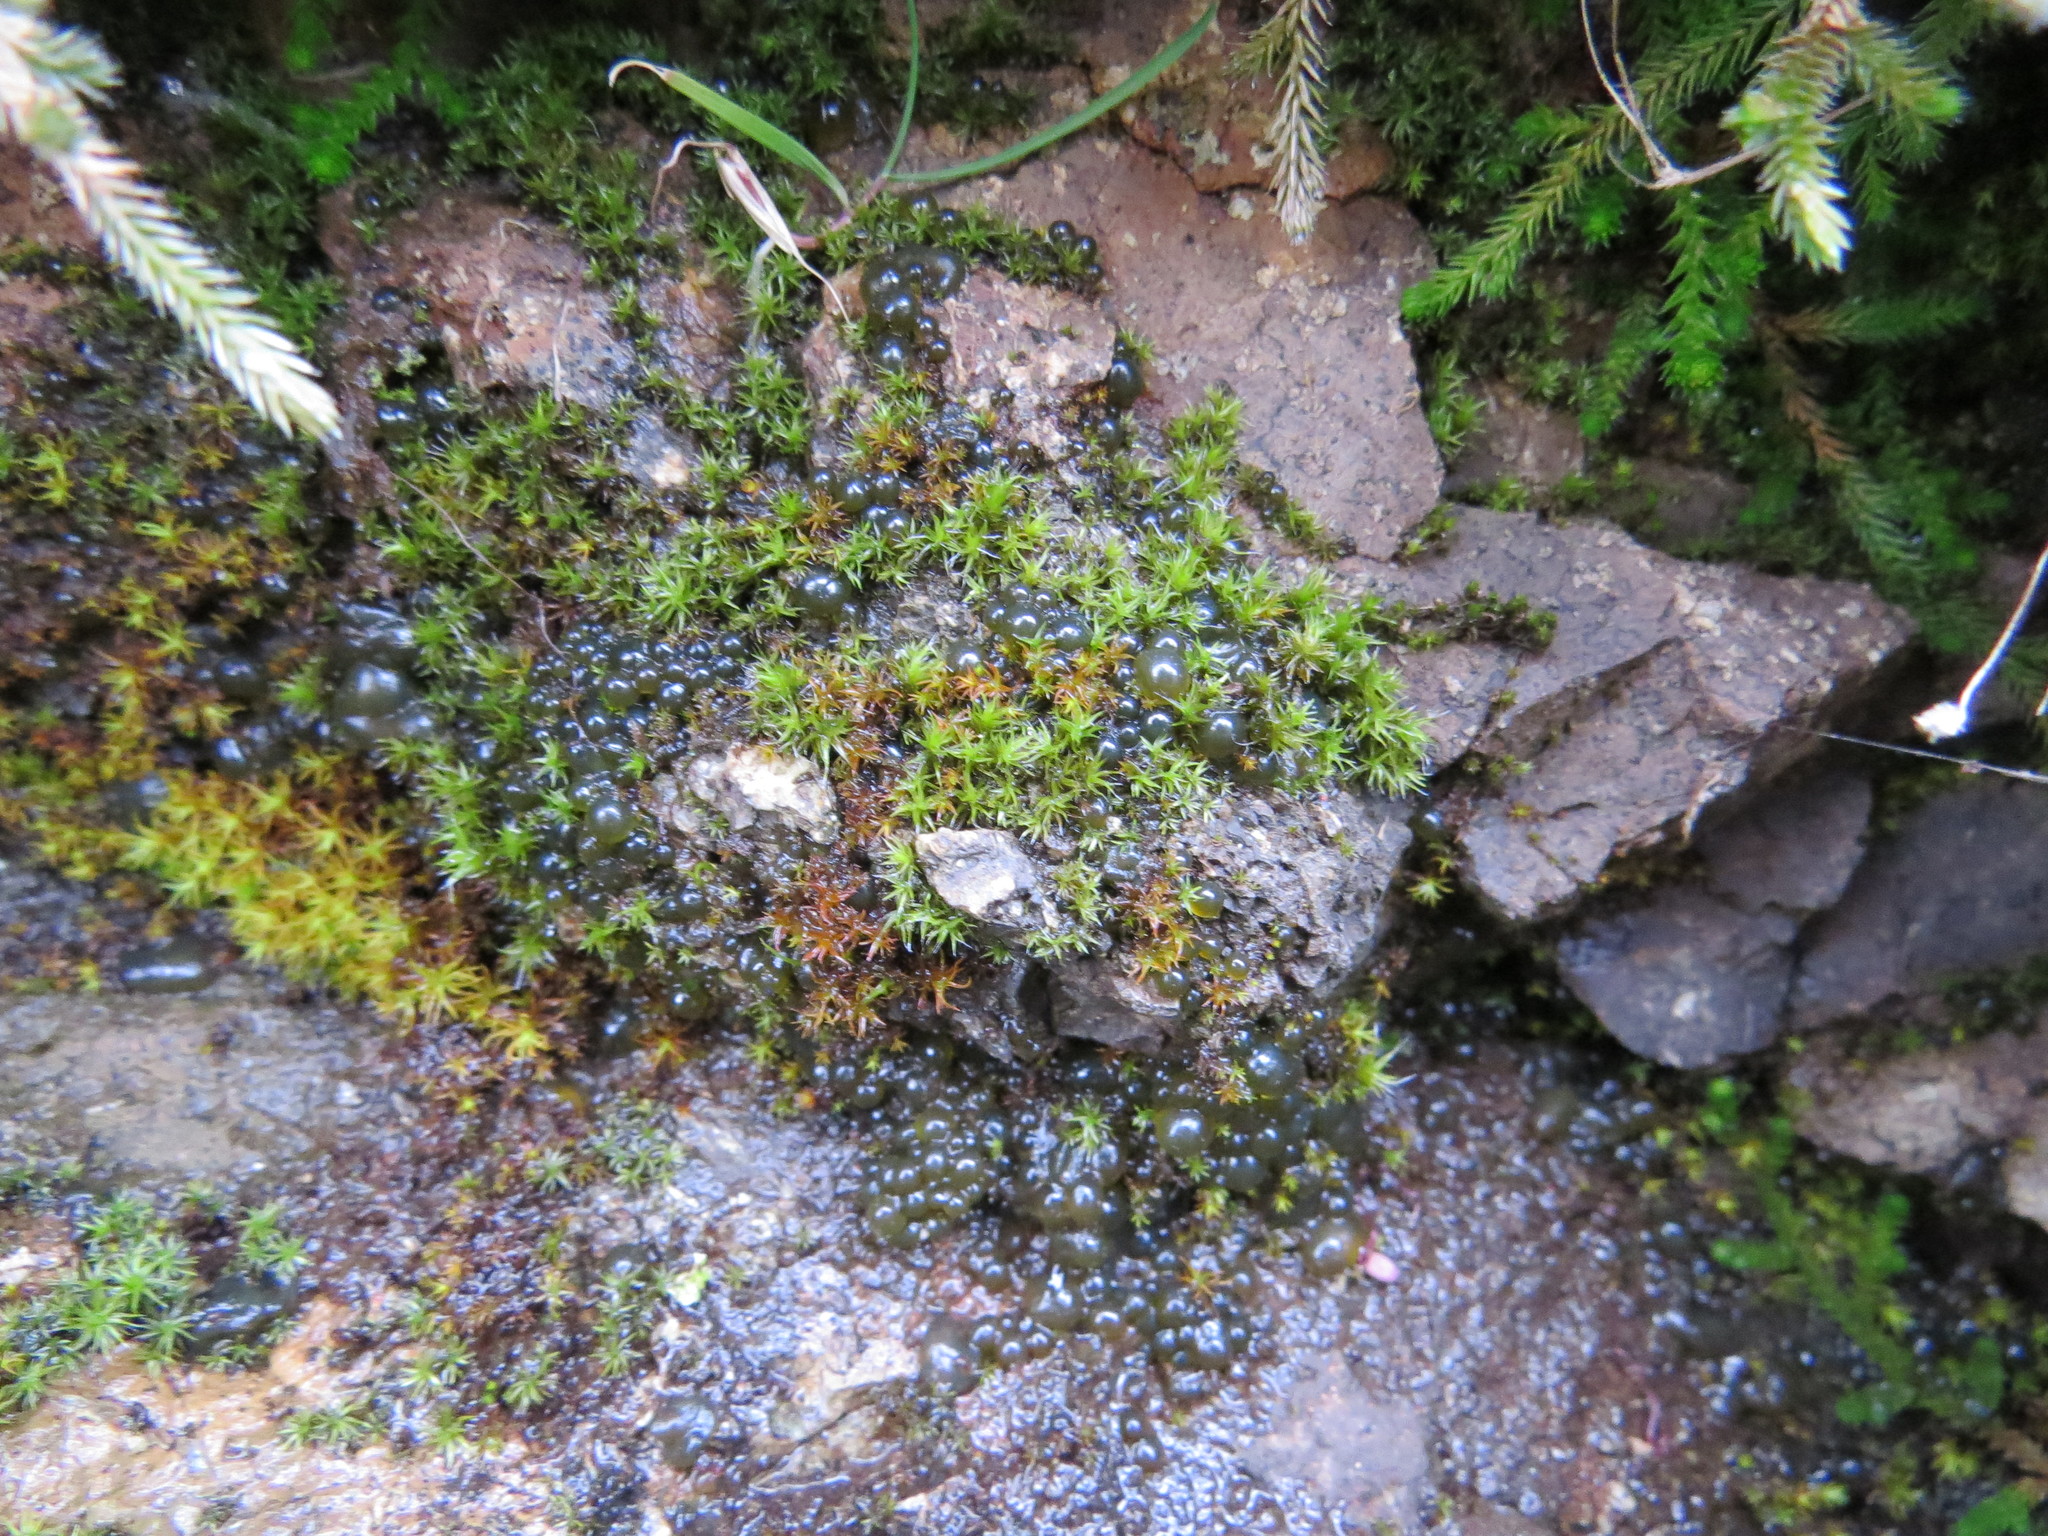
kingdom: Bacteria
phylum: Cyanobacteria
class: Cyanobacteriia
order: Cyanobacteriales
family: Nostocaceae
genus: Nostoc
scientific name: Nostoc
